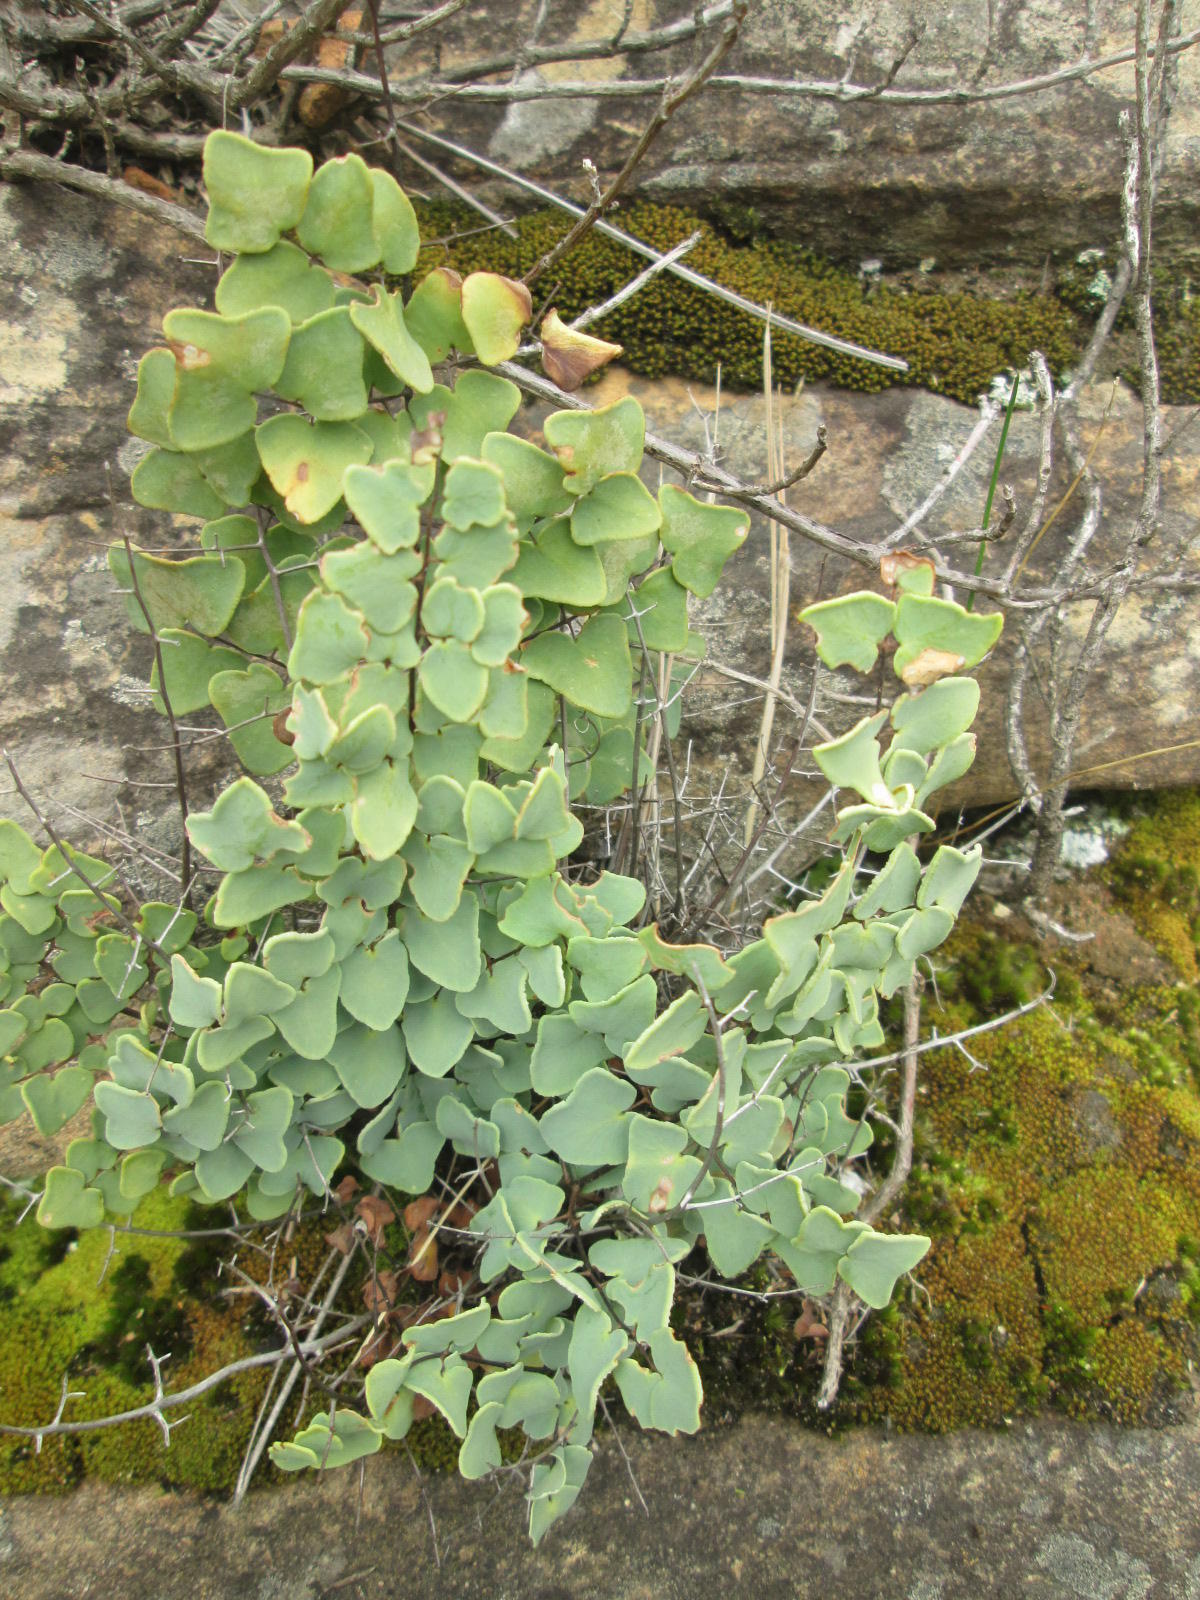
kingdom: Plantae
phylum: Tracheophyta
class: Polypodiopsida
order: Polypodiales
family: Pteridaceae
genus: Pellaea
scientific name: Pellaea calomelanos
